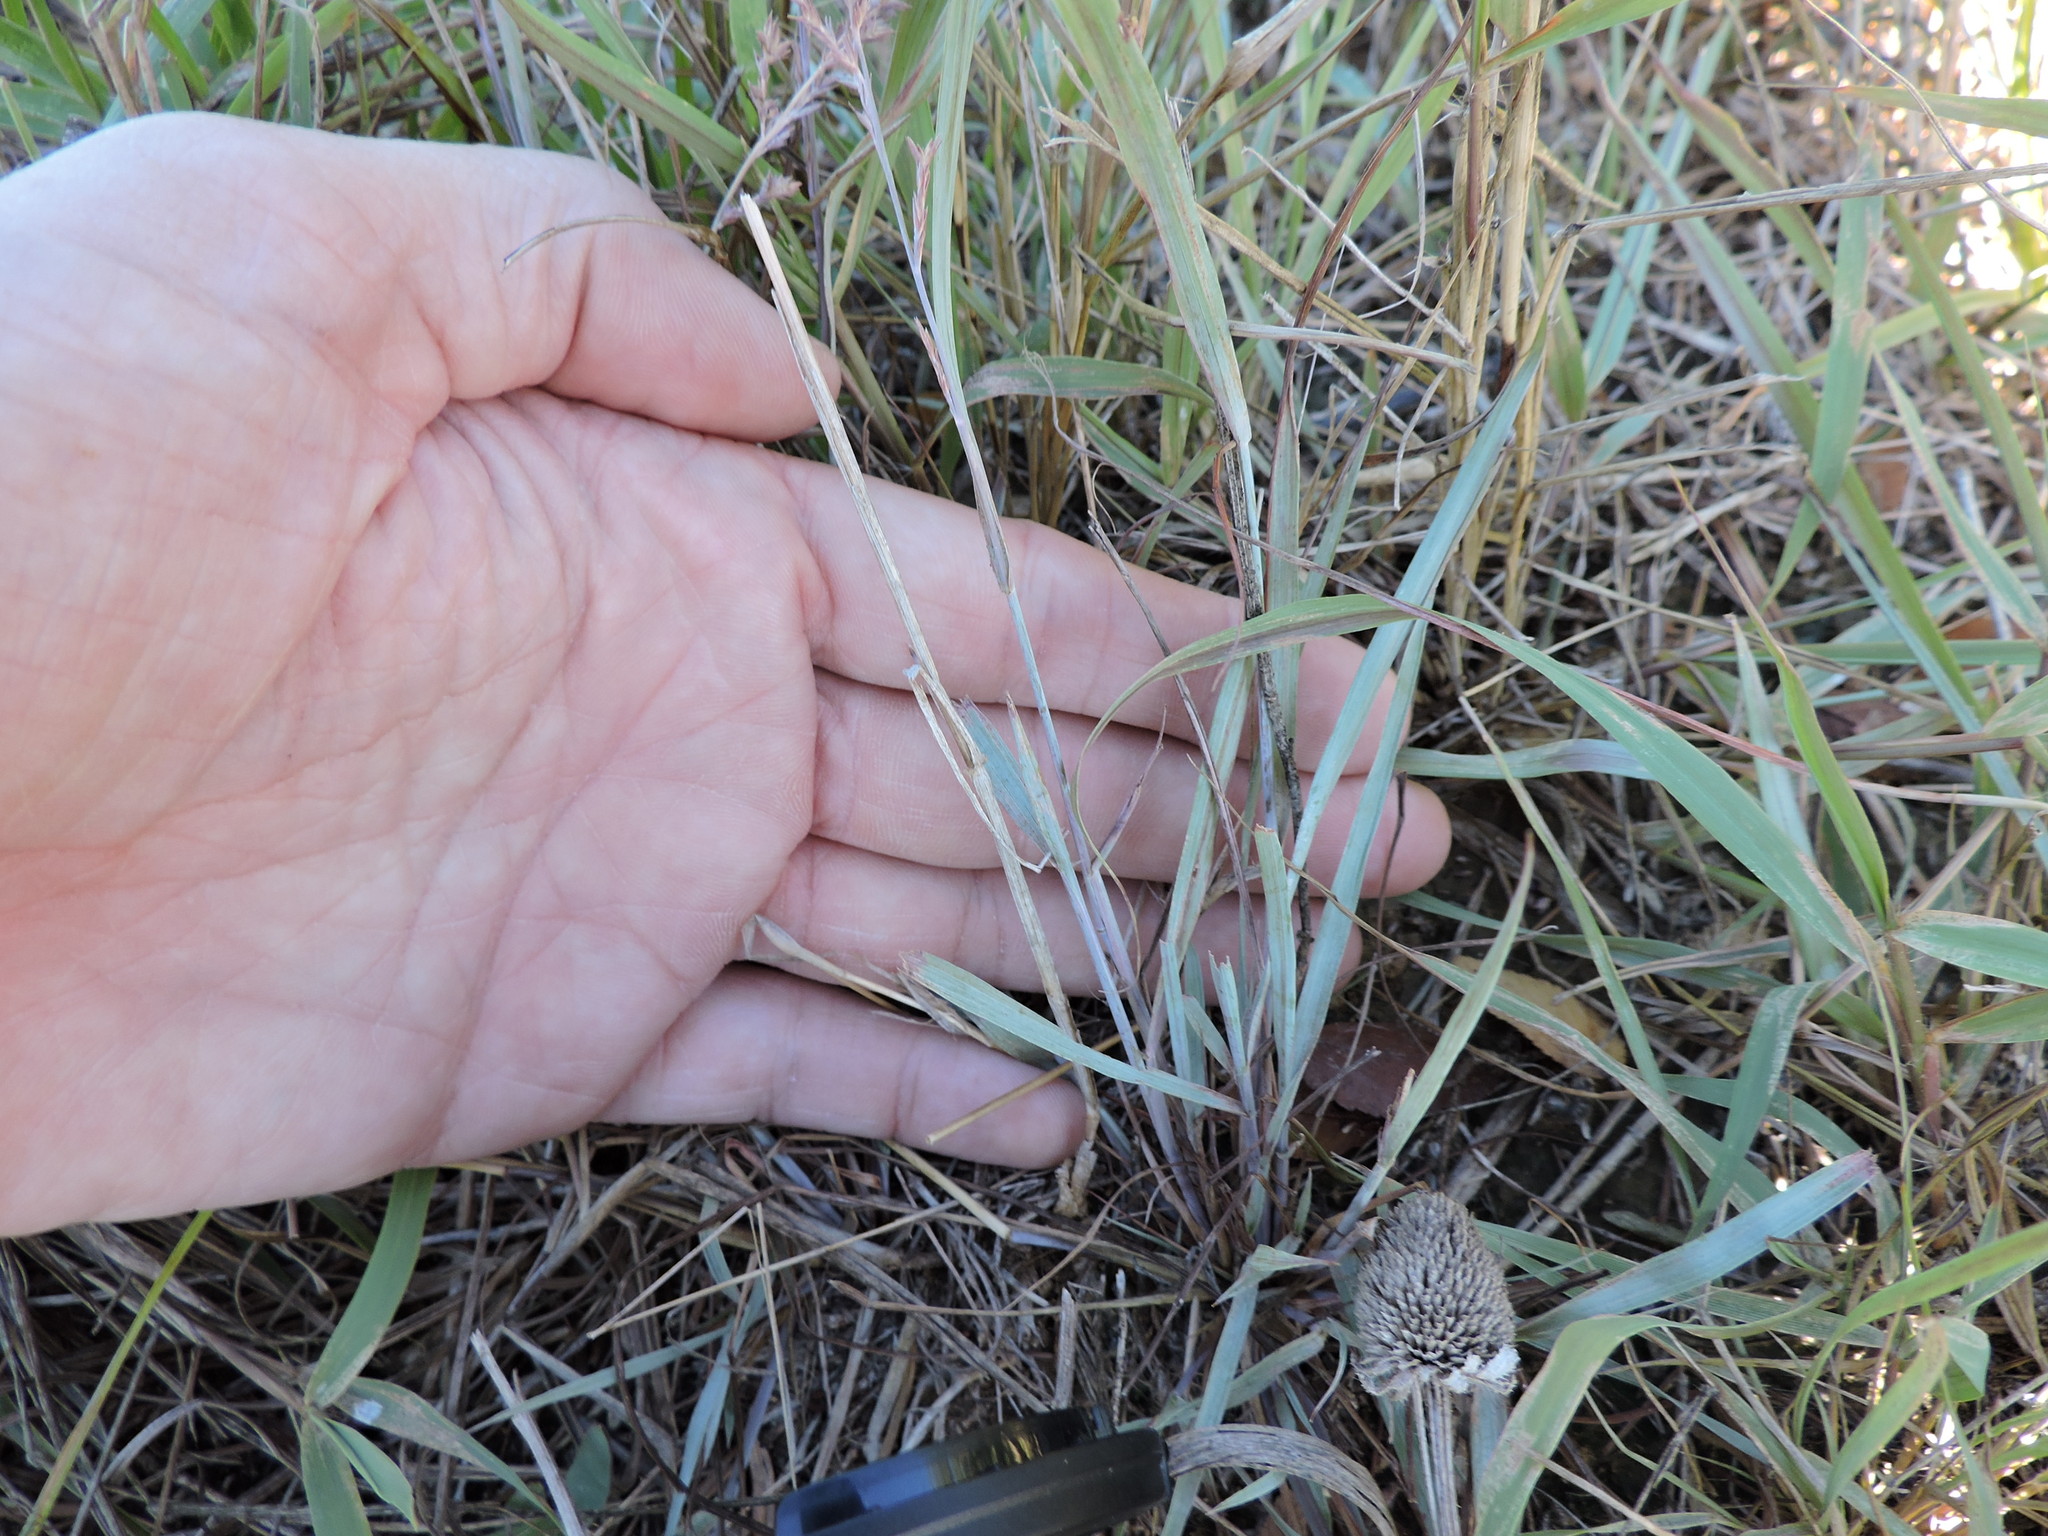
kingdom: Plantae
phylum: Tracheophyta
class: Liliopsida
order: Poales
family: Poaceae
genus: Eragrostis
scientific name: Eragrostis secundiflora
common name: Red love grass
